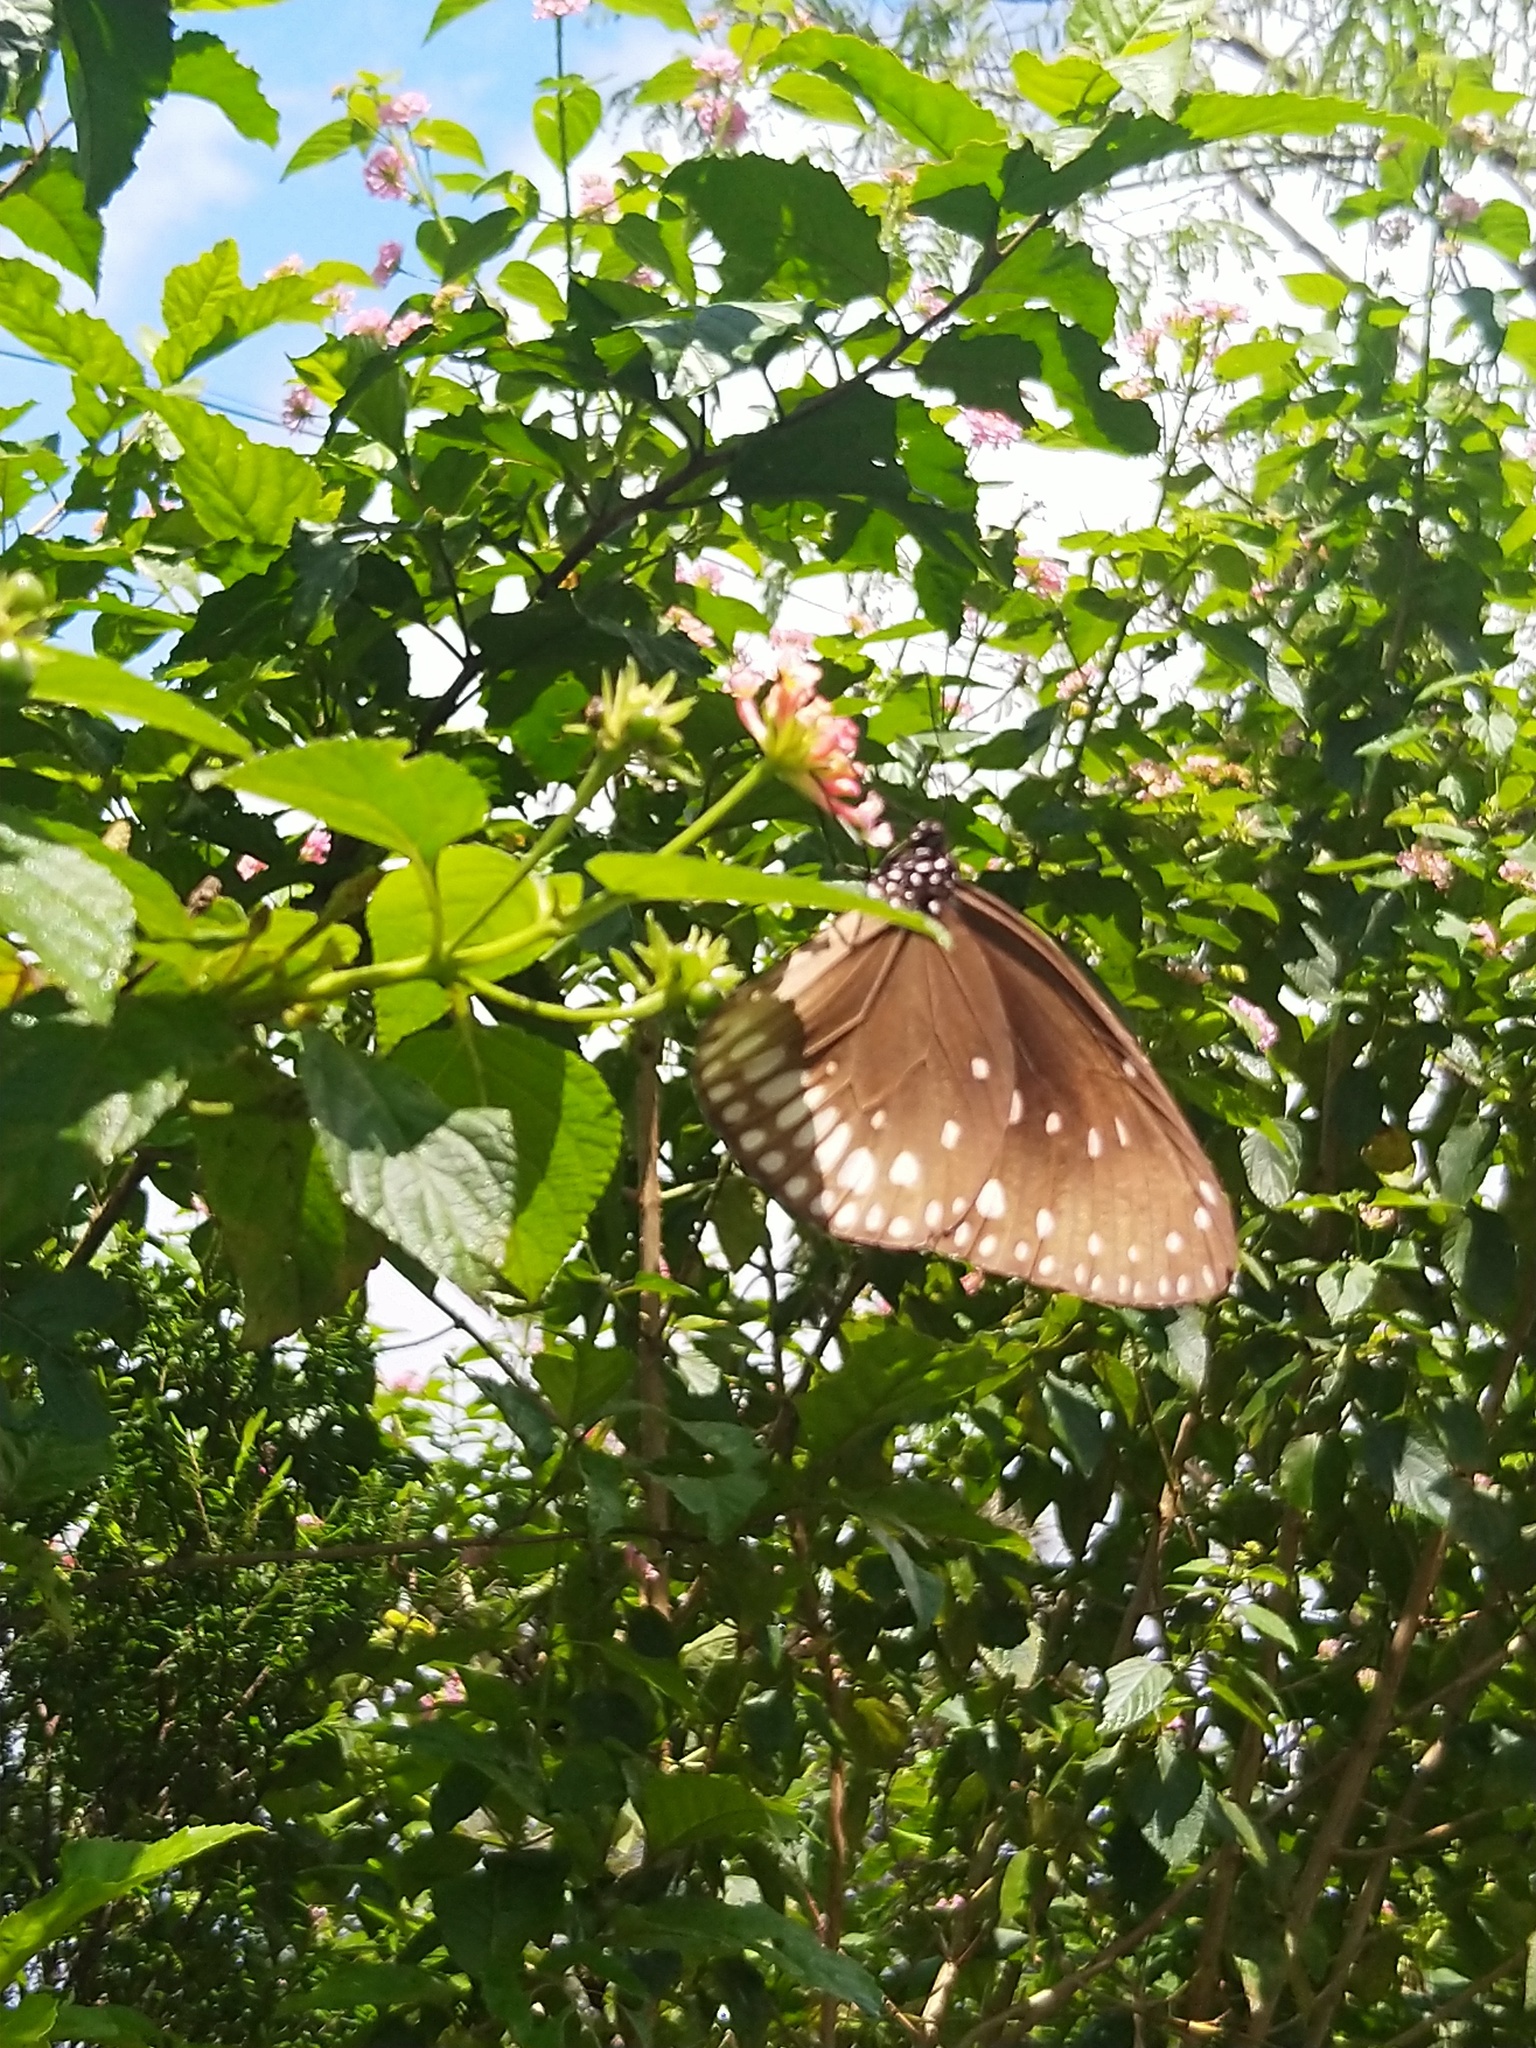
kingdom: Animalia
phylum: Arthropoda
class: Insecta
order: Lepidoptera
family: Nymphalidae
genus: Euploea
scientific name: Euploea klugii
